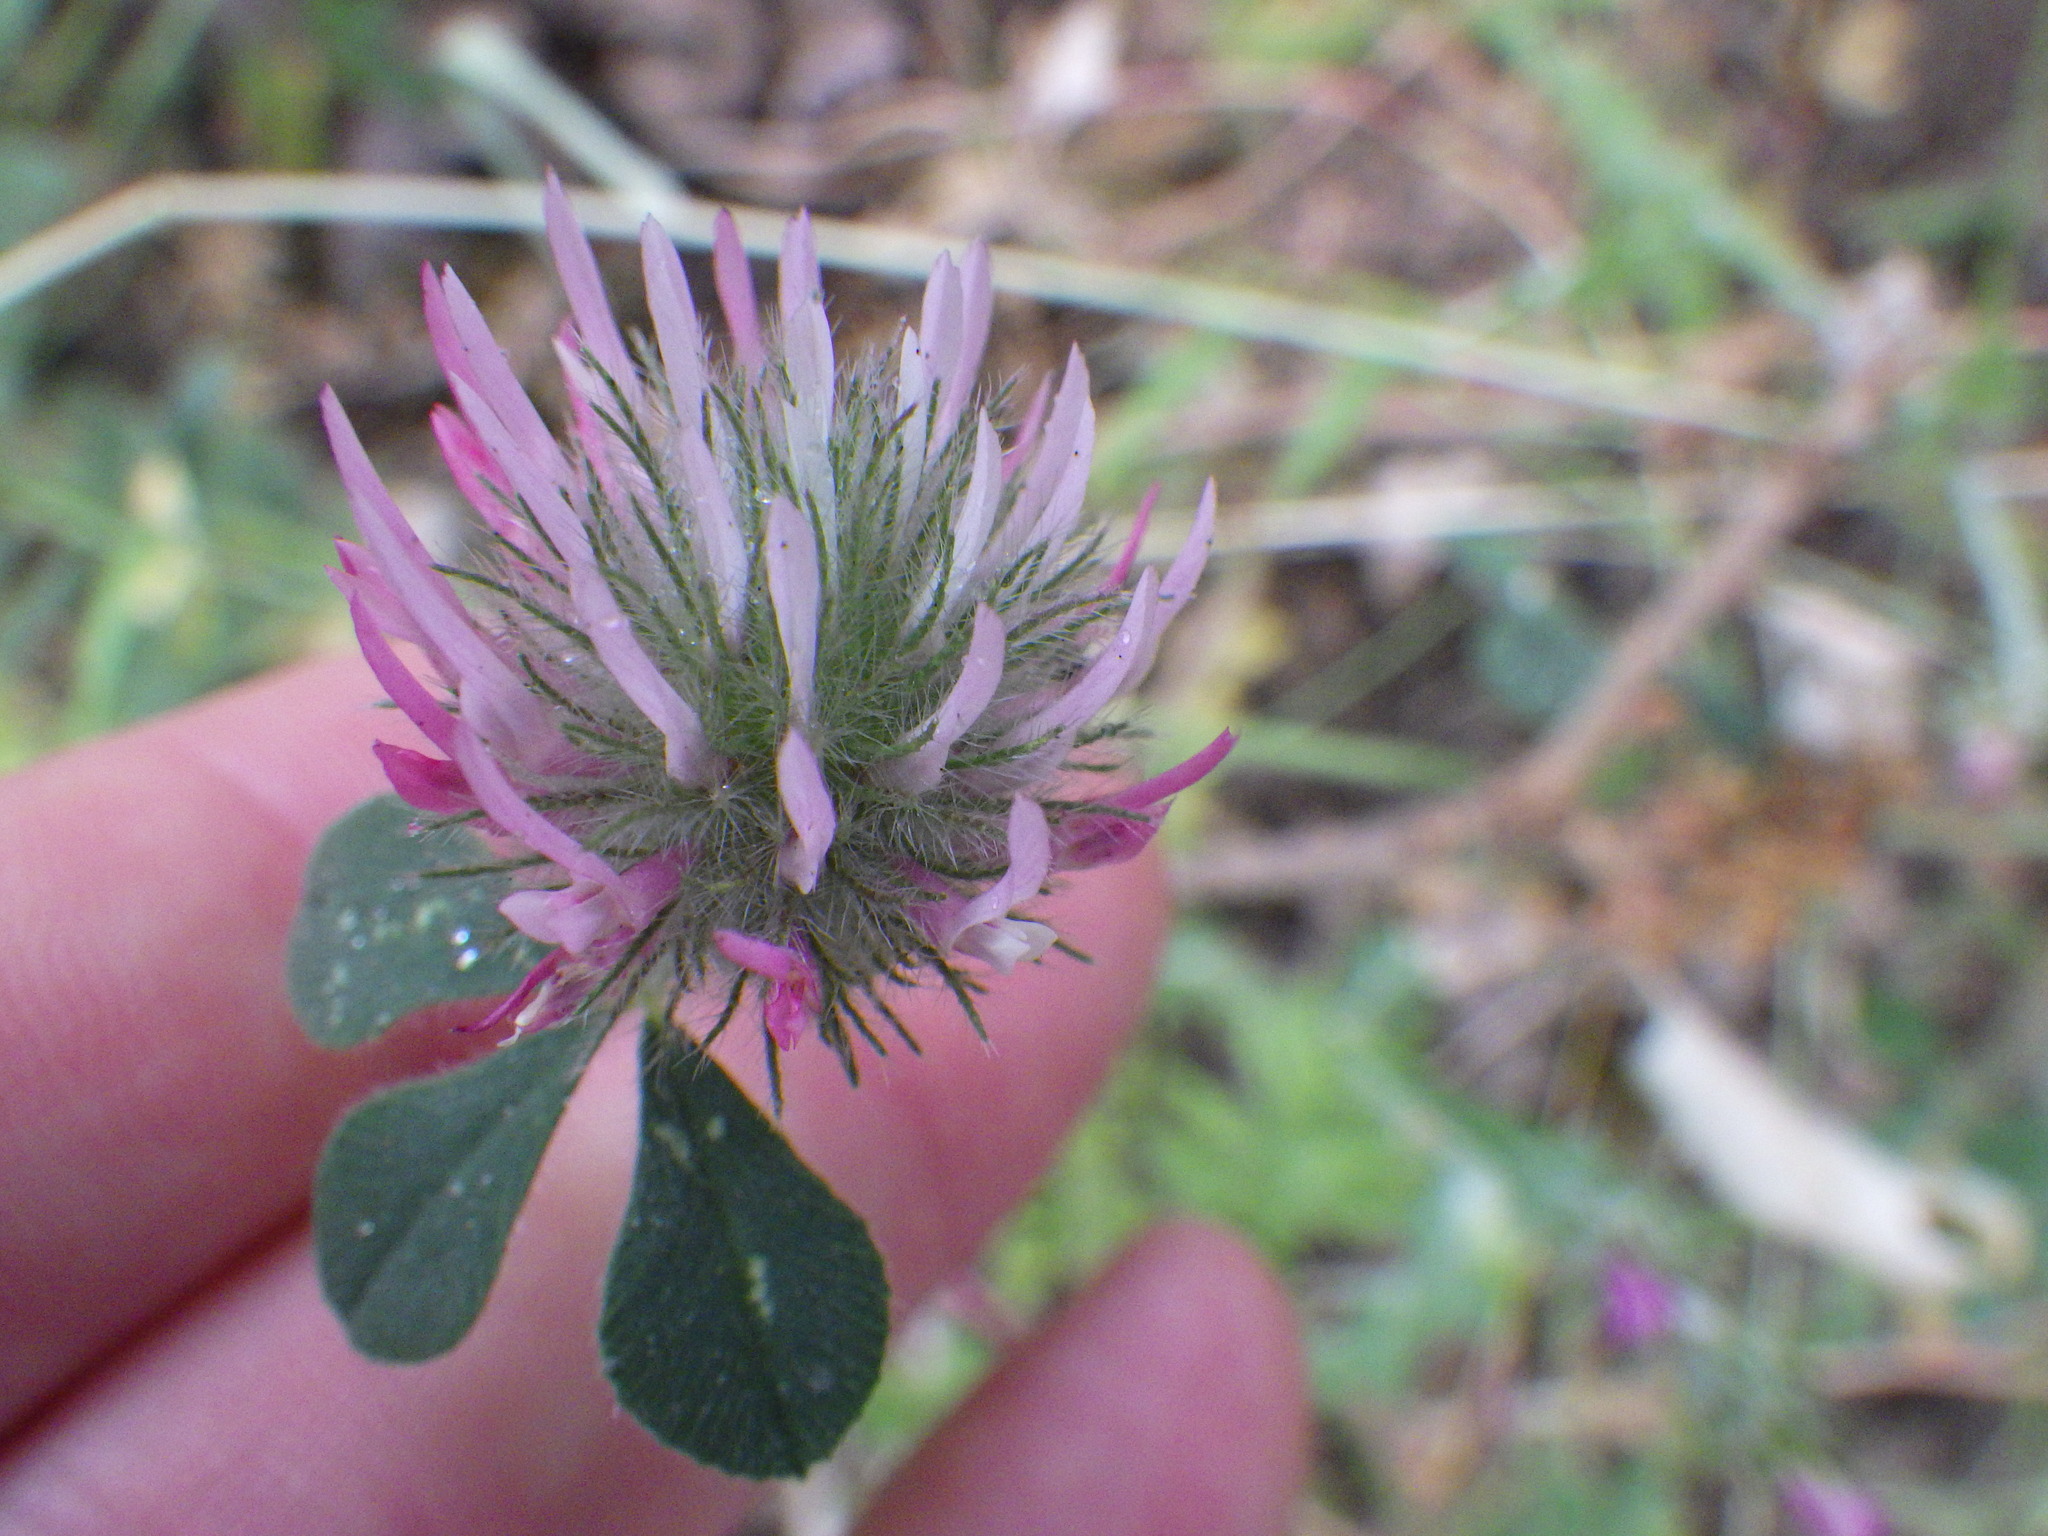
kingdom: Plantae
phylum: Tracheophyta
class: Magnoliopsida
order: Fabales
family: Fabaceae
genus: Trifolium
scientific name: Trifolium hirtum
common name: Rose clover
